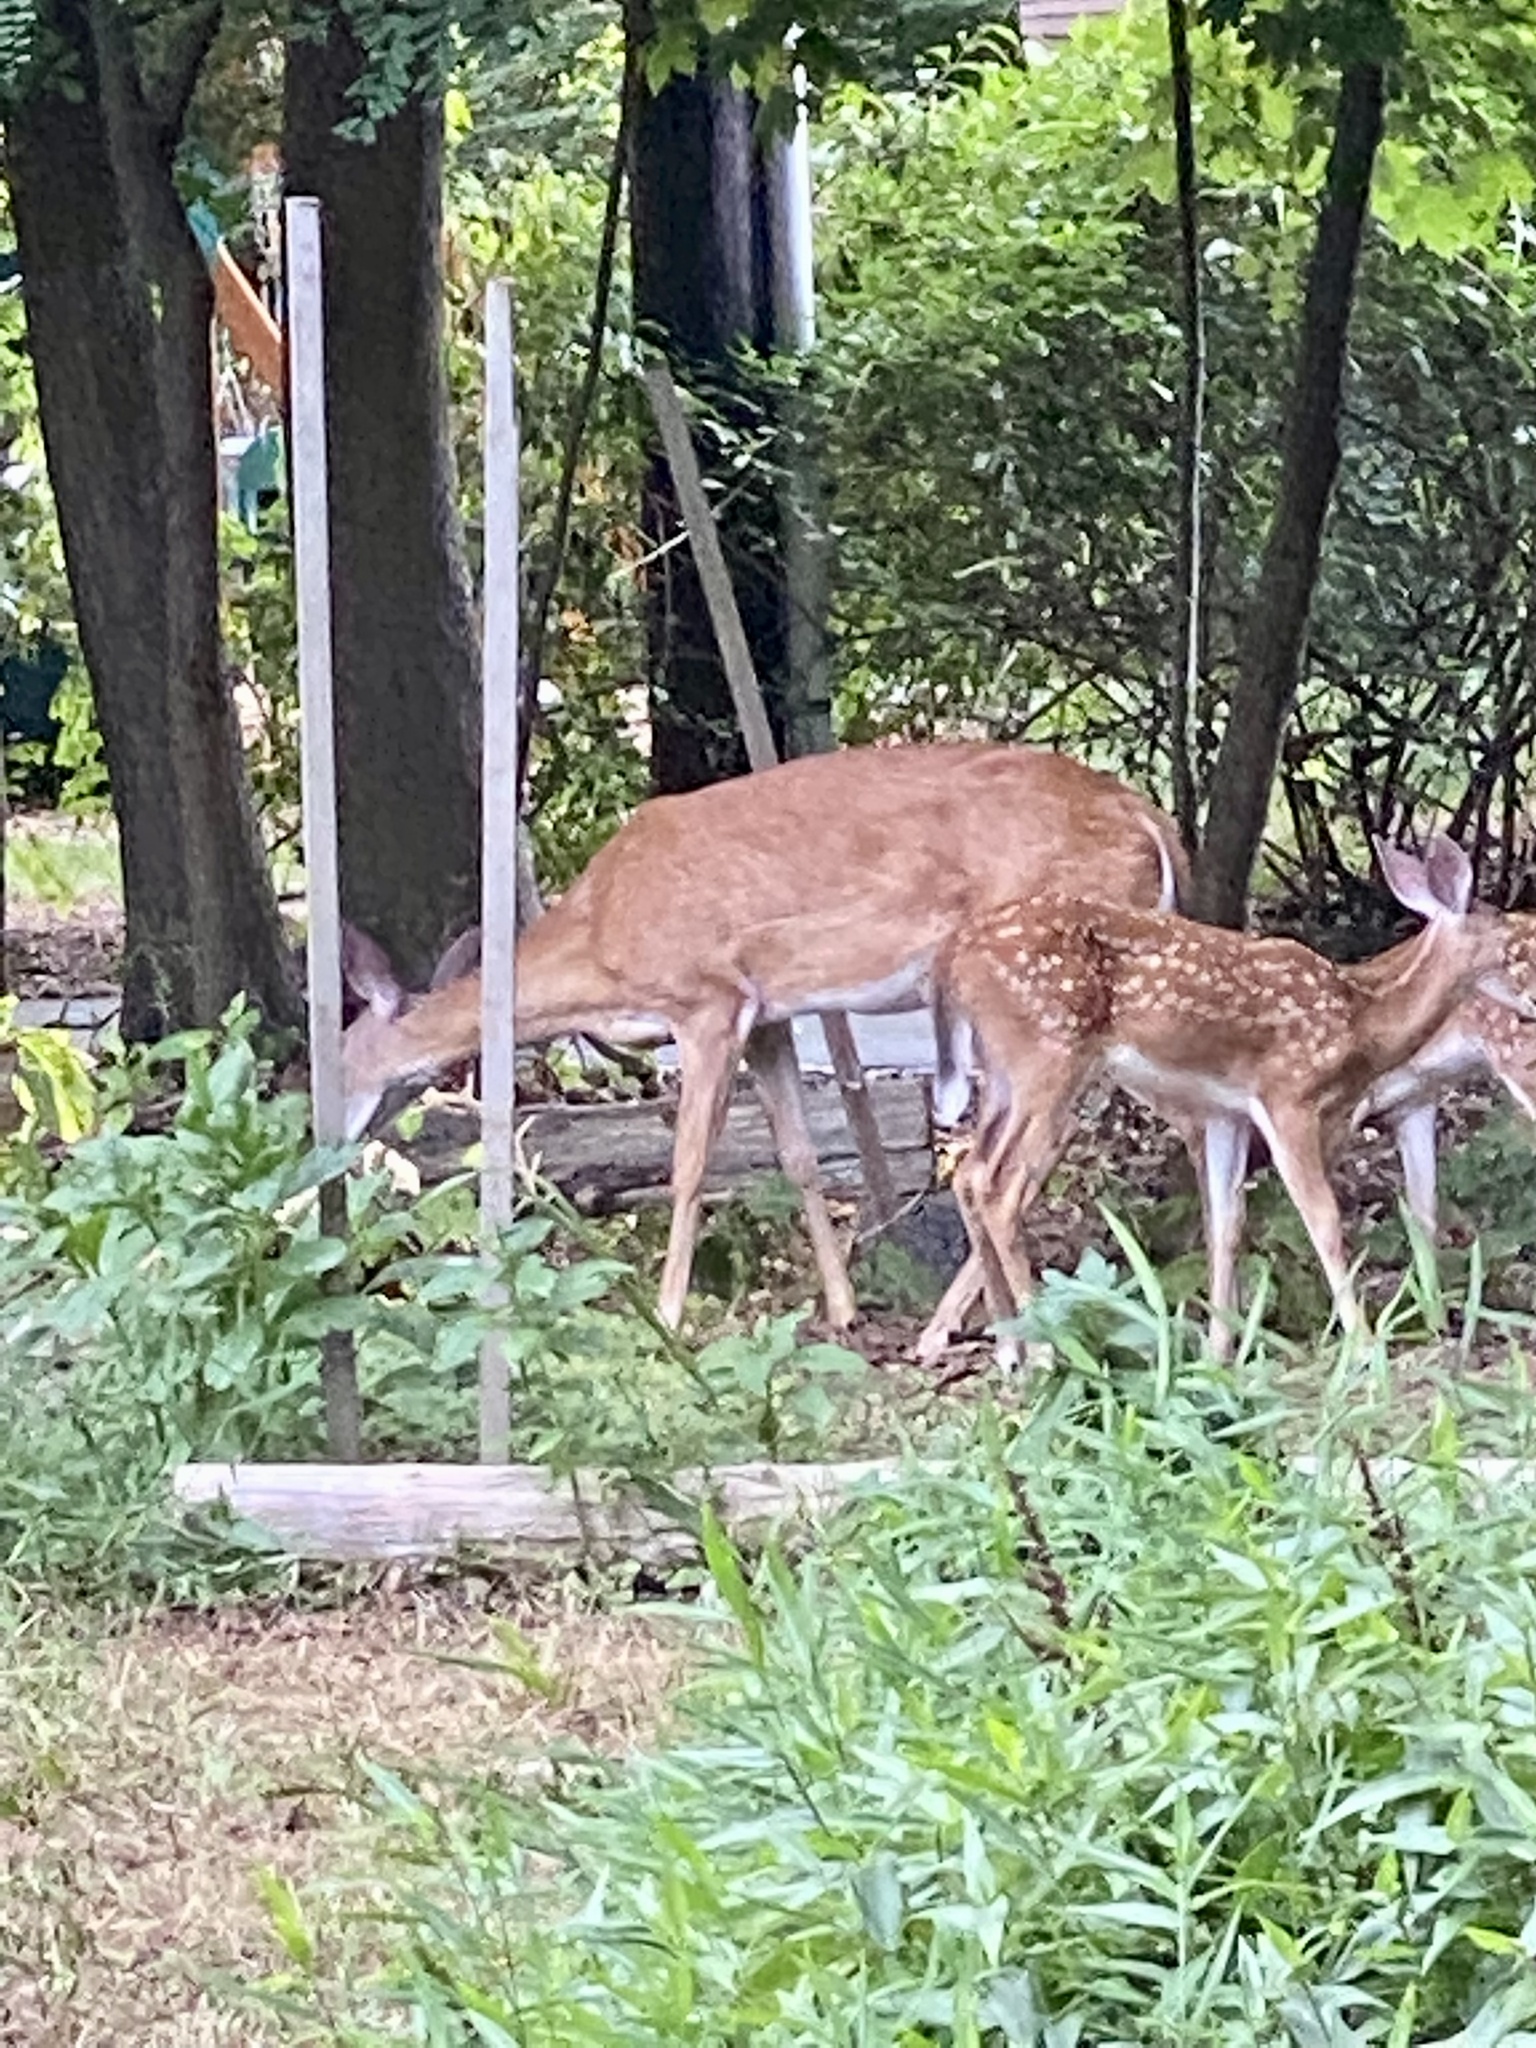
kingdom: Animalia
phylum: Chordata
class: Mammalia
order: Artiodactyla
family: Cervidae
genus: Odocoileus
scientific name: Odocoileus virginianus
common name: White-tailed deer
